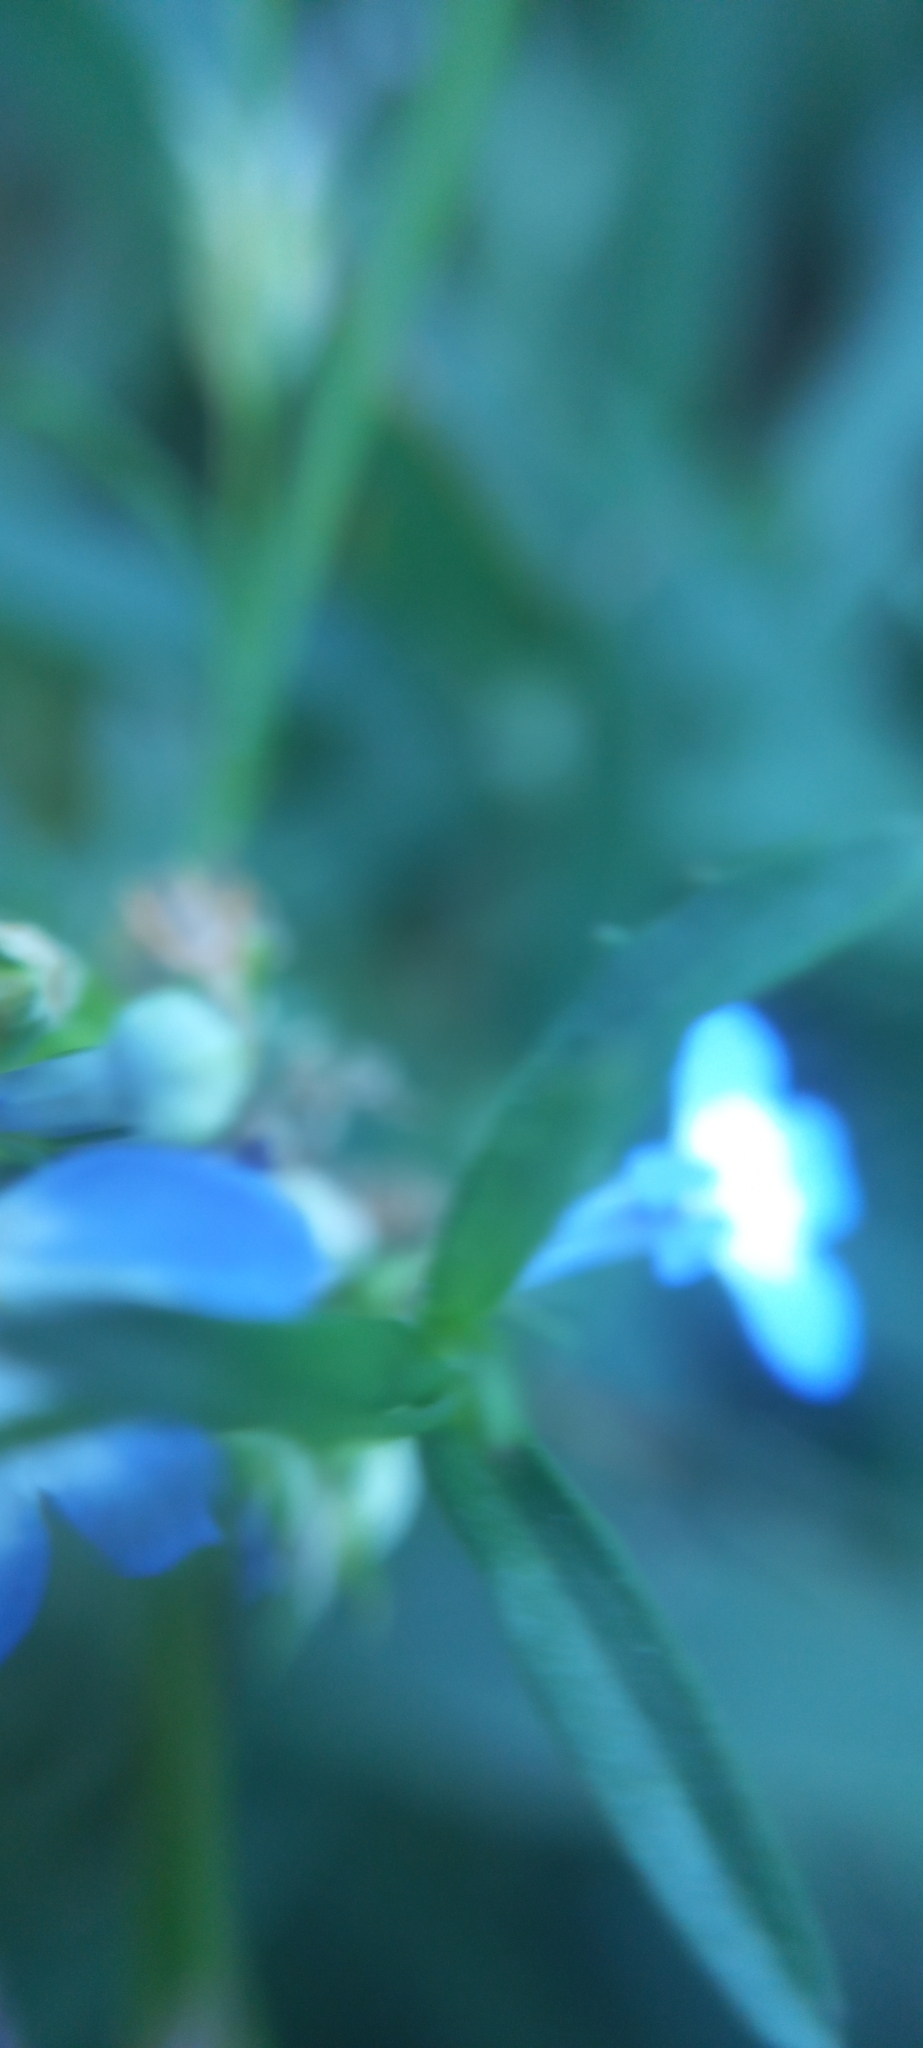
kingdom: Plantae
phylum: Tracheophyta
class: Magnoliopsida
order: Asterales
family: Campanulaceae
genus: Lobelia
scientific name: Lobelia comosa
